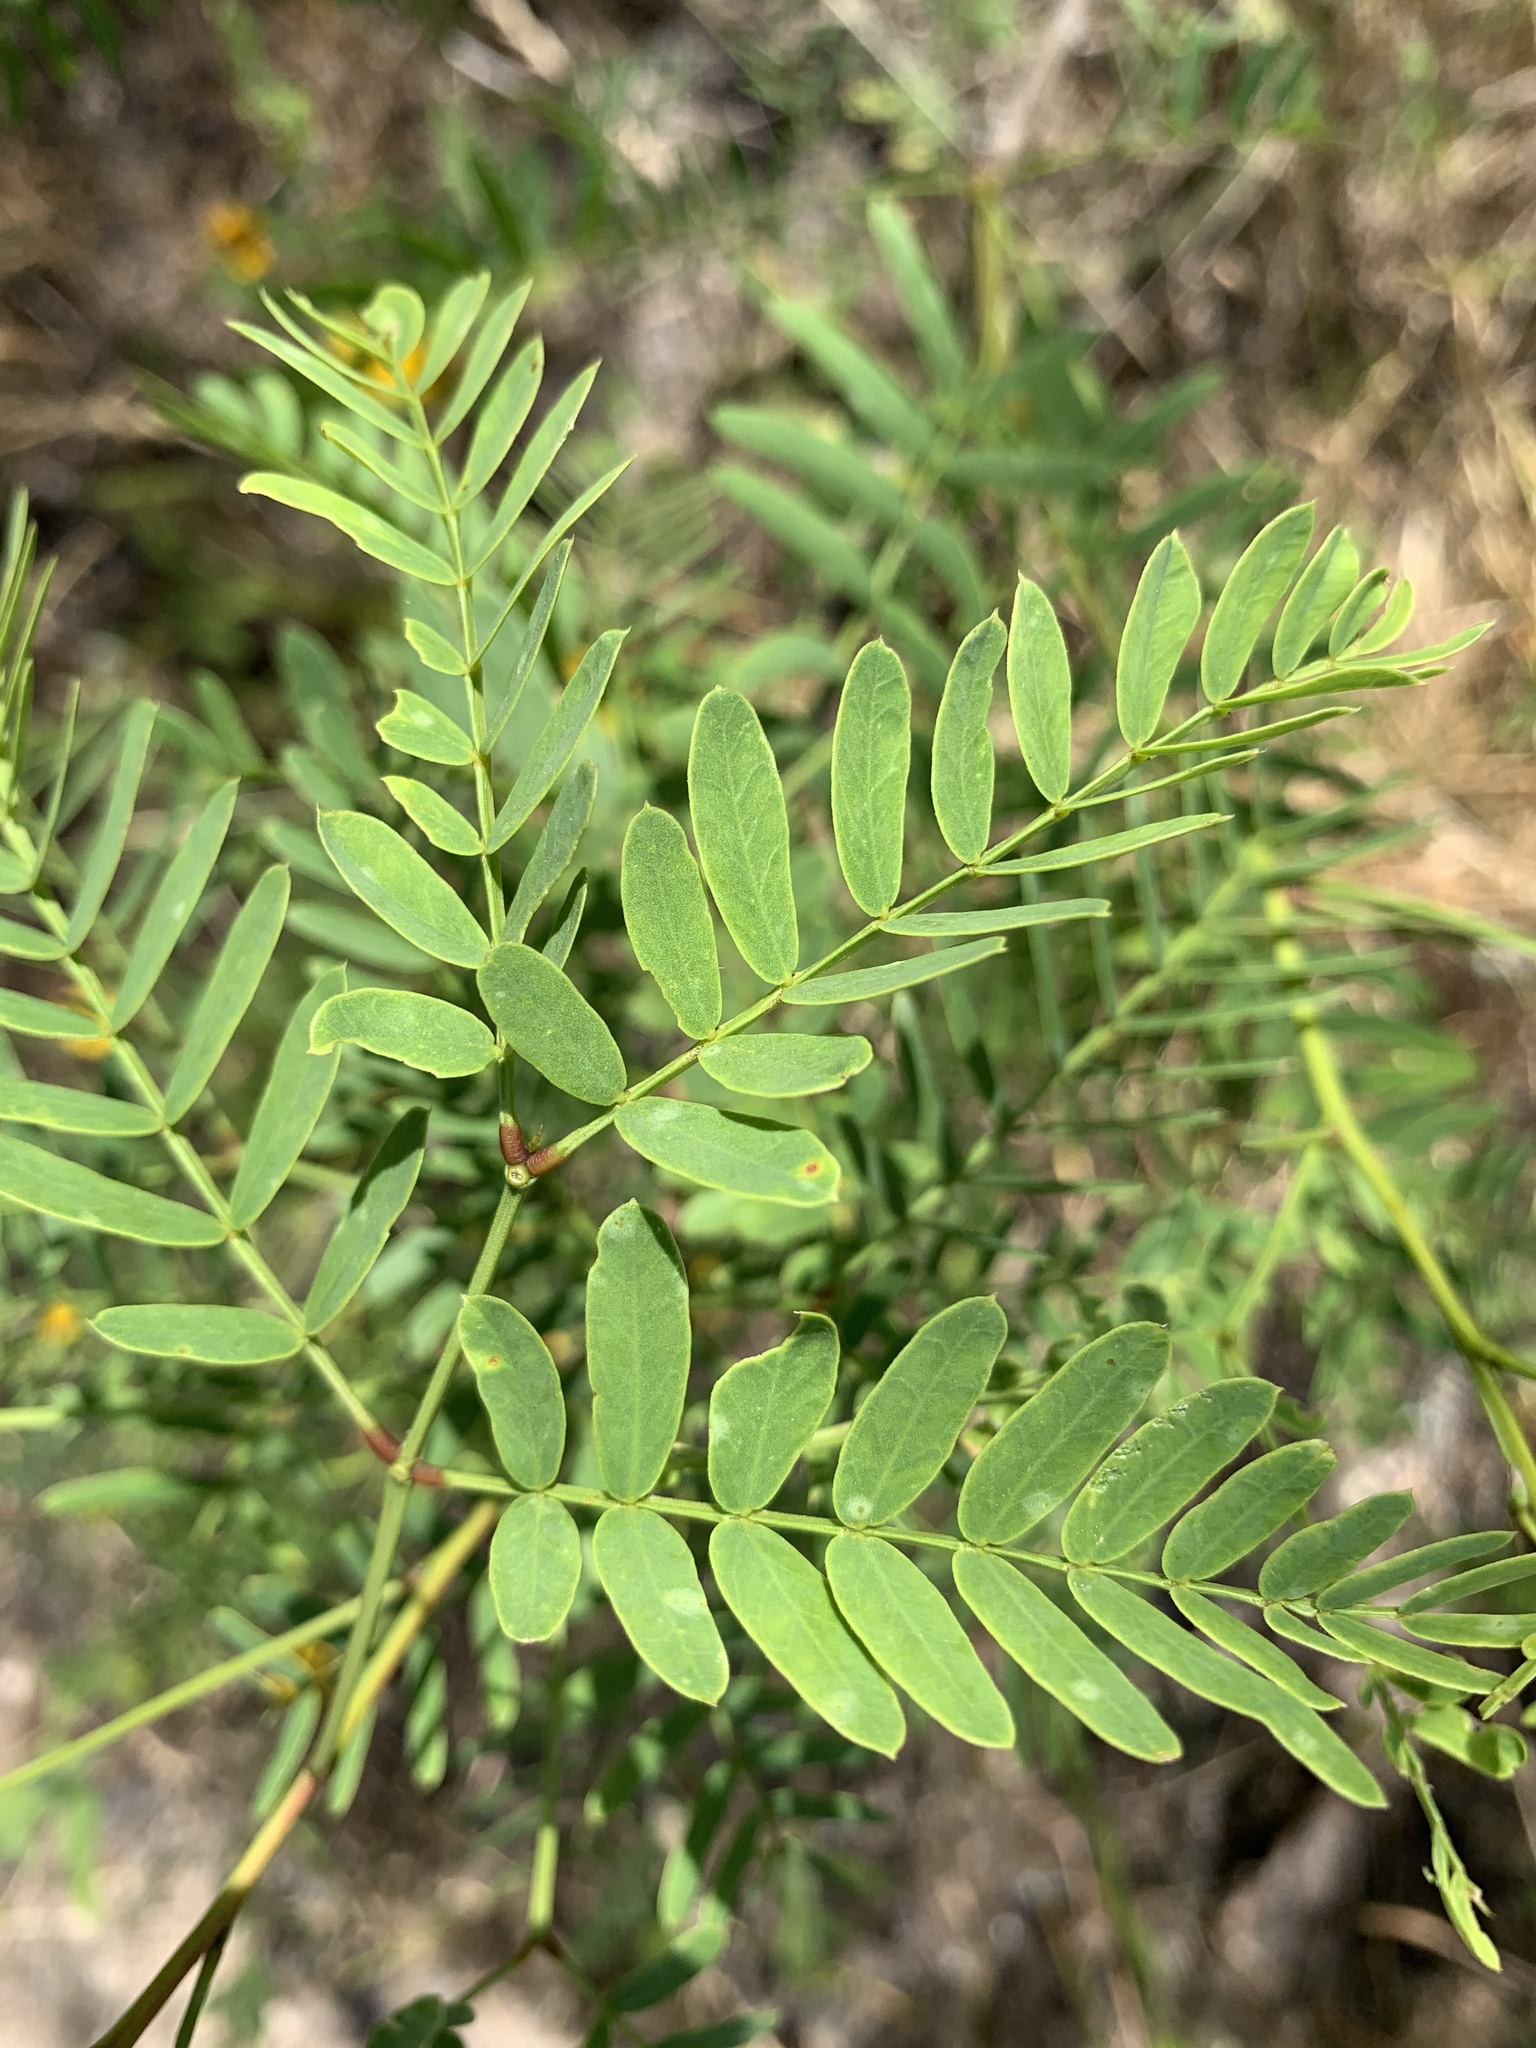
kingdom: Plantae
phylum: Tracheophyta
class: Magnoliopsida
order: Fabales
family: Fabaceae
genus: Prosopis
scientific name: Prosopis glandulosa
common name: Honey mesquite
